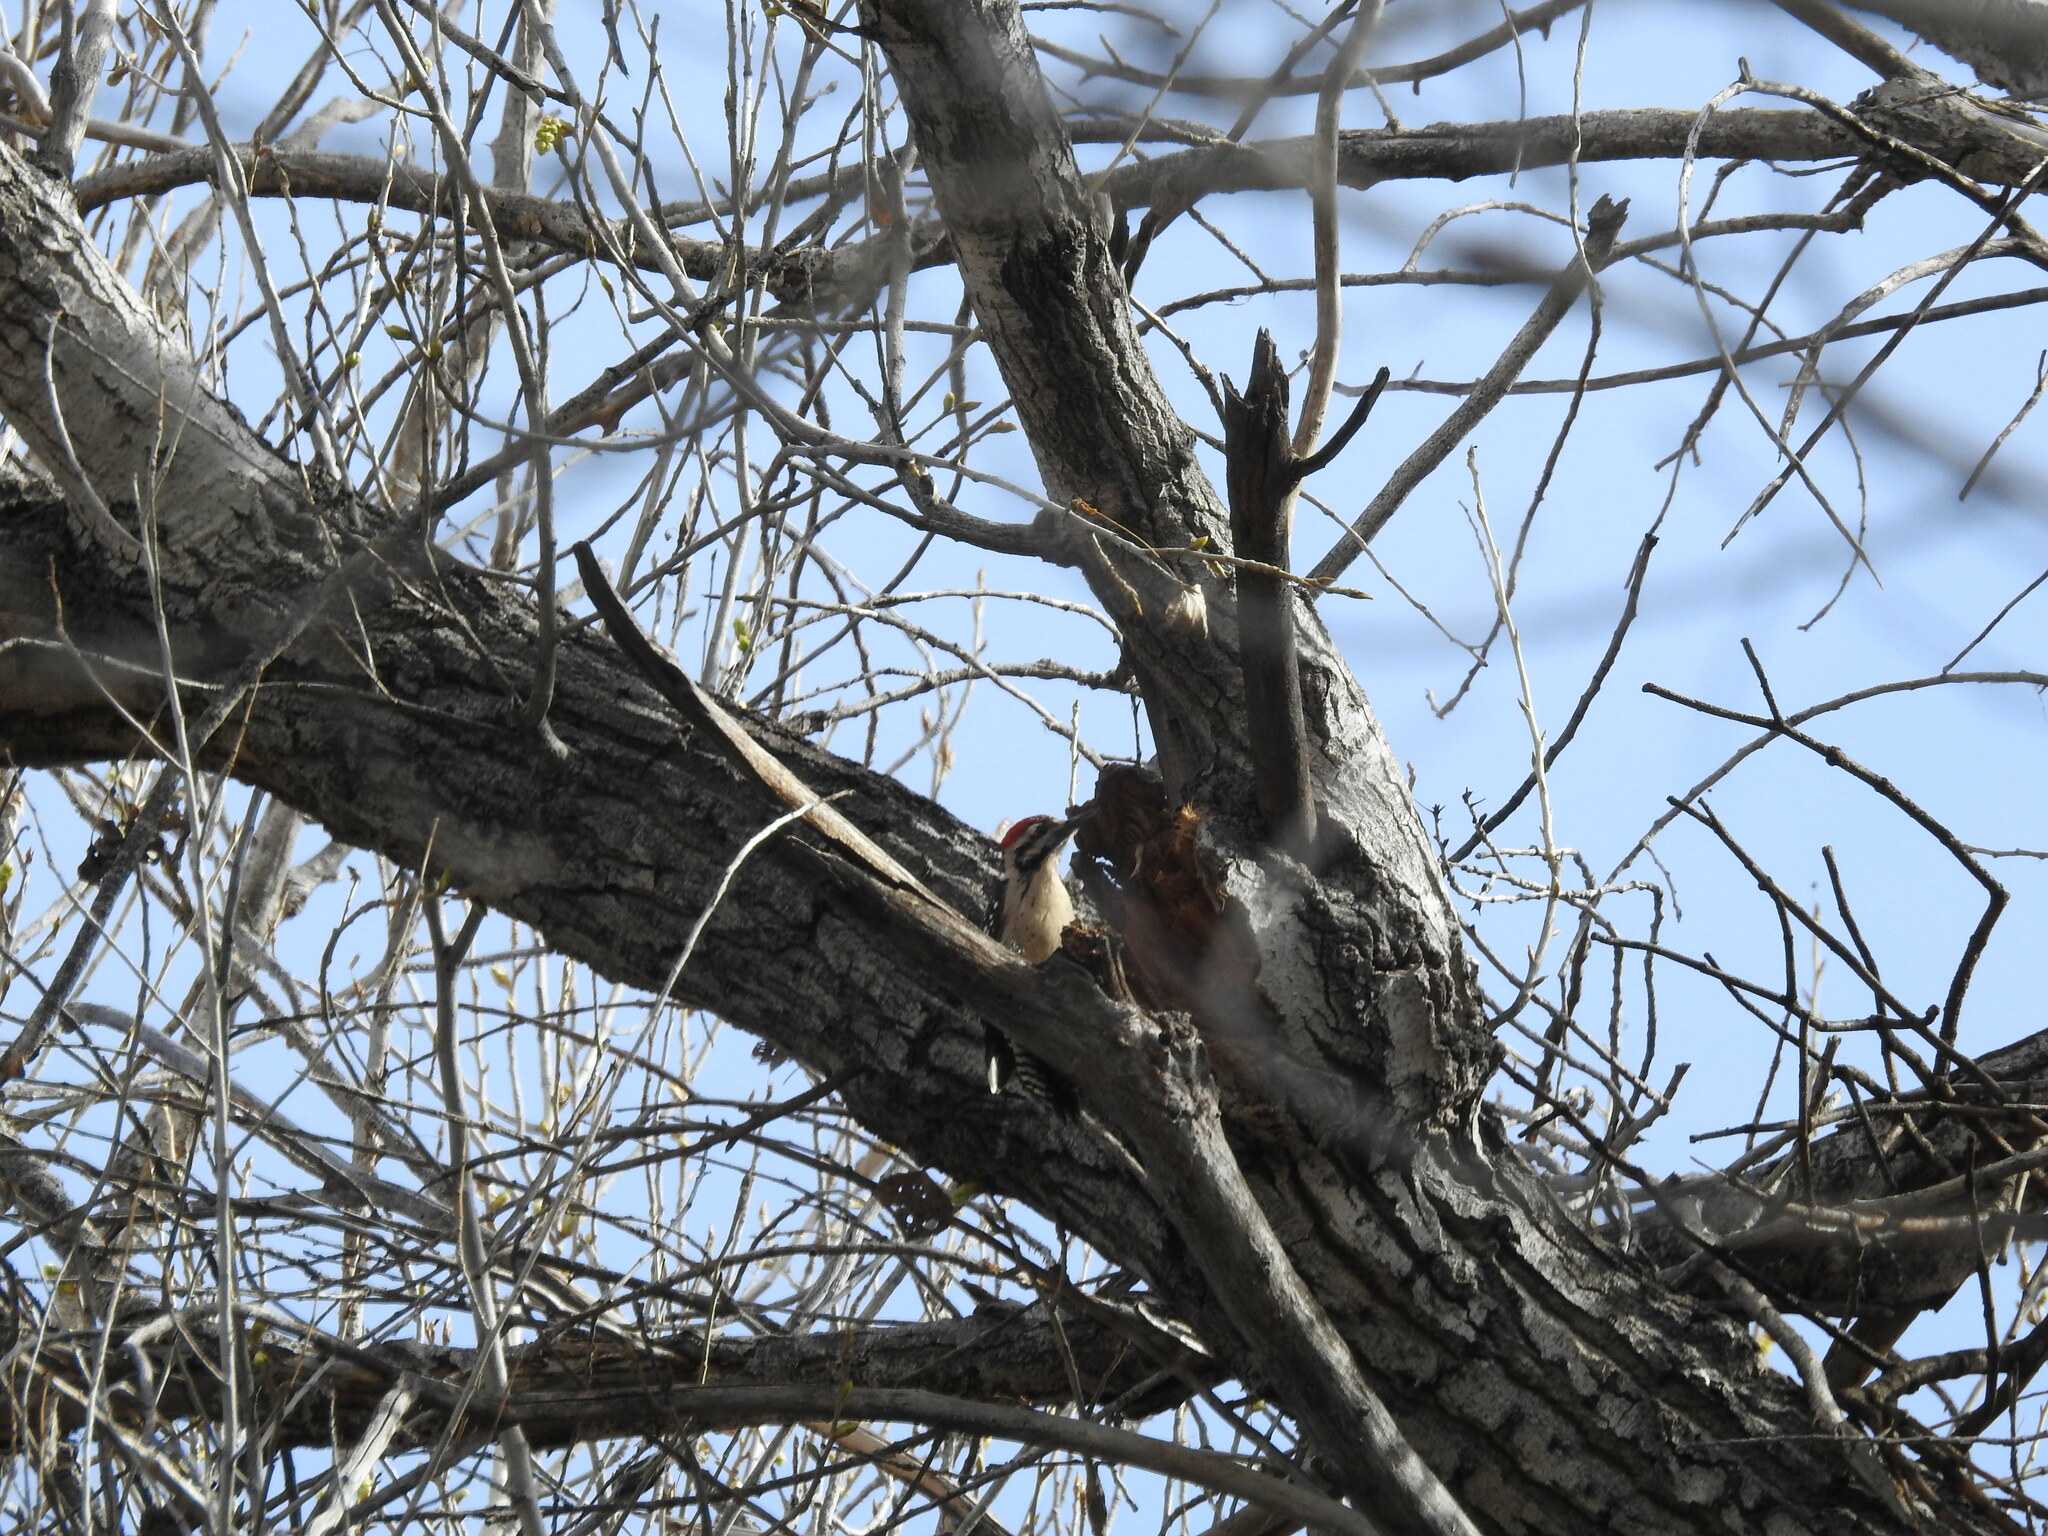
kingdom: Animalia
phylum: Chordata
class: Aves
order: Piciformes
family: Picidae
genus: Dryobates
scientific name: Dryobates scalaris
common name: Ladder-backed woodpecker
